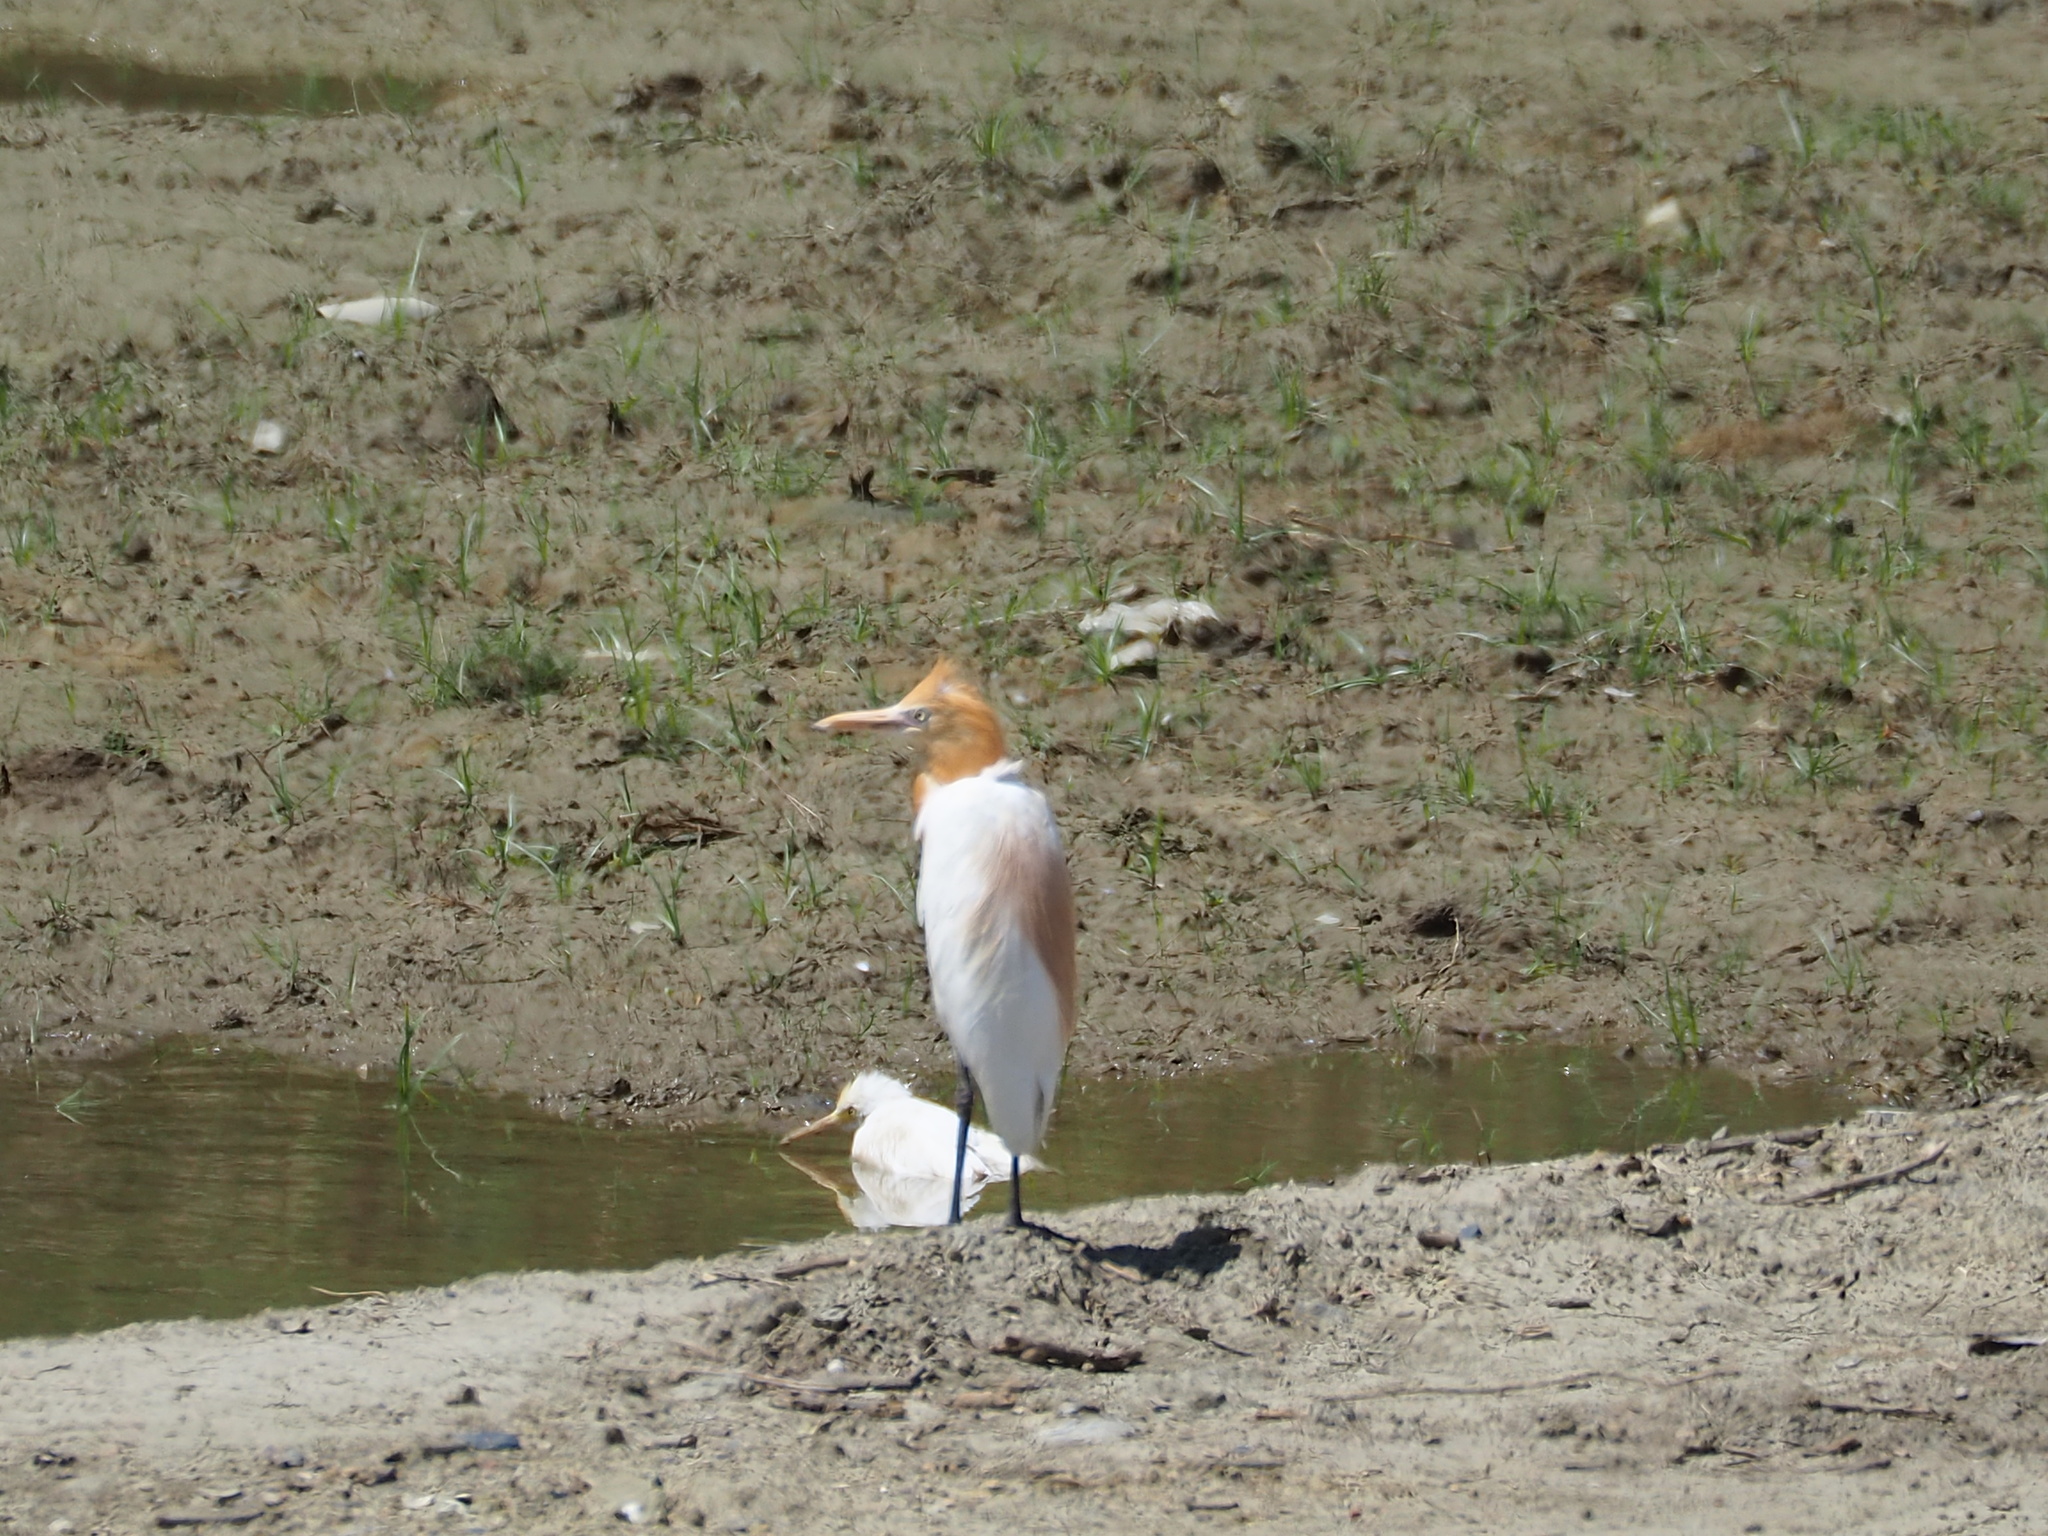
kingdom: Animalia
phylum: Chordata
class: Aves
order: Pelecaniformes
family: Ardeidae
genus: Bubulcus
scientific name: Bubulcus coromandus
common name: Eastern cattle egret
